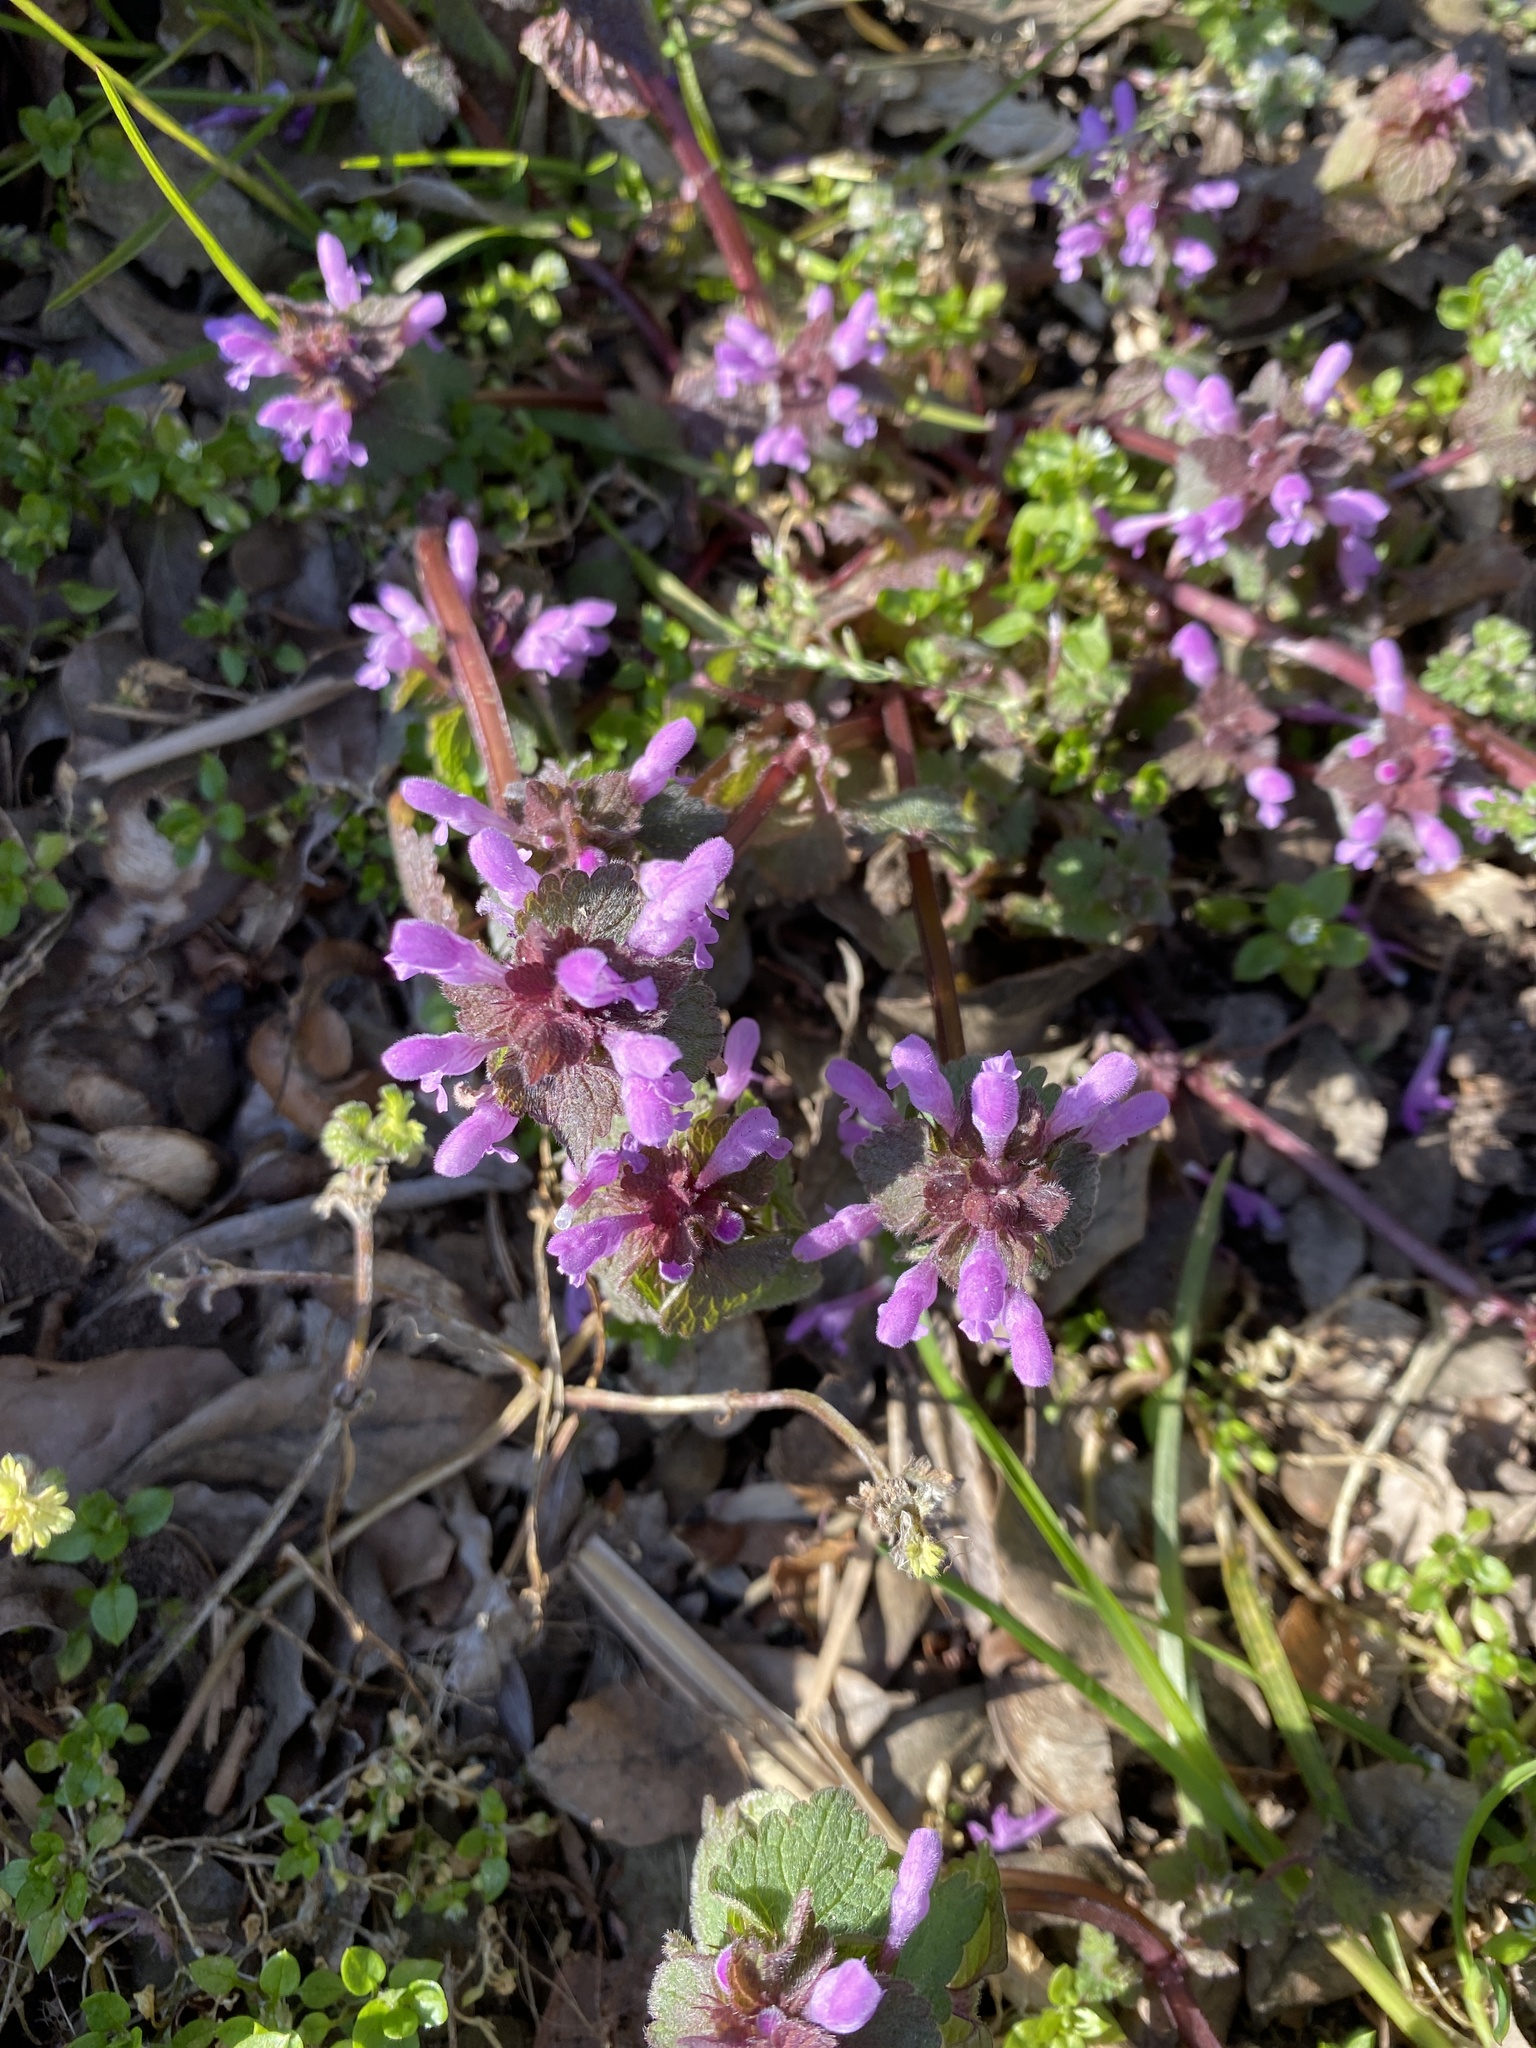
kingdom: Plantae
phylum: Tracheophyta
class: Magnoliopsida
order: Lamiales
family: Lamiaceae
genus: Lamium
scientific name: Lamium purpureum
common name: Red dead-nettle
